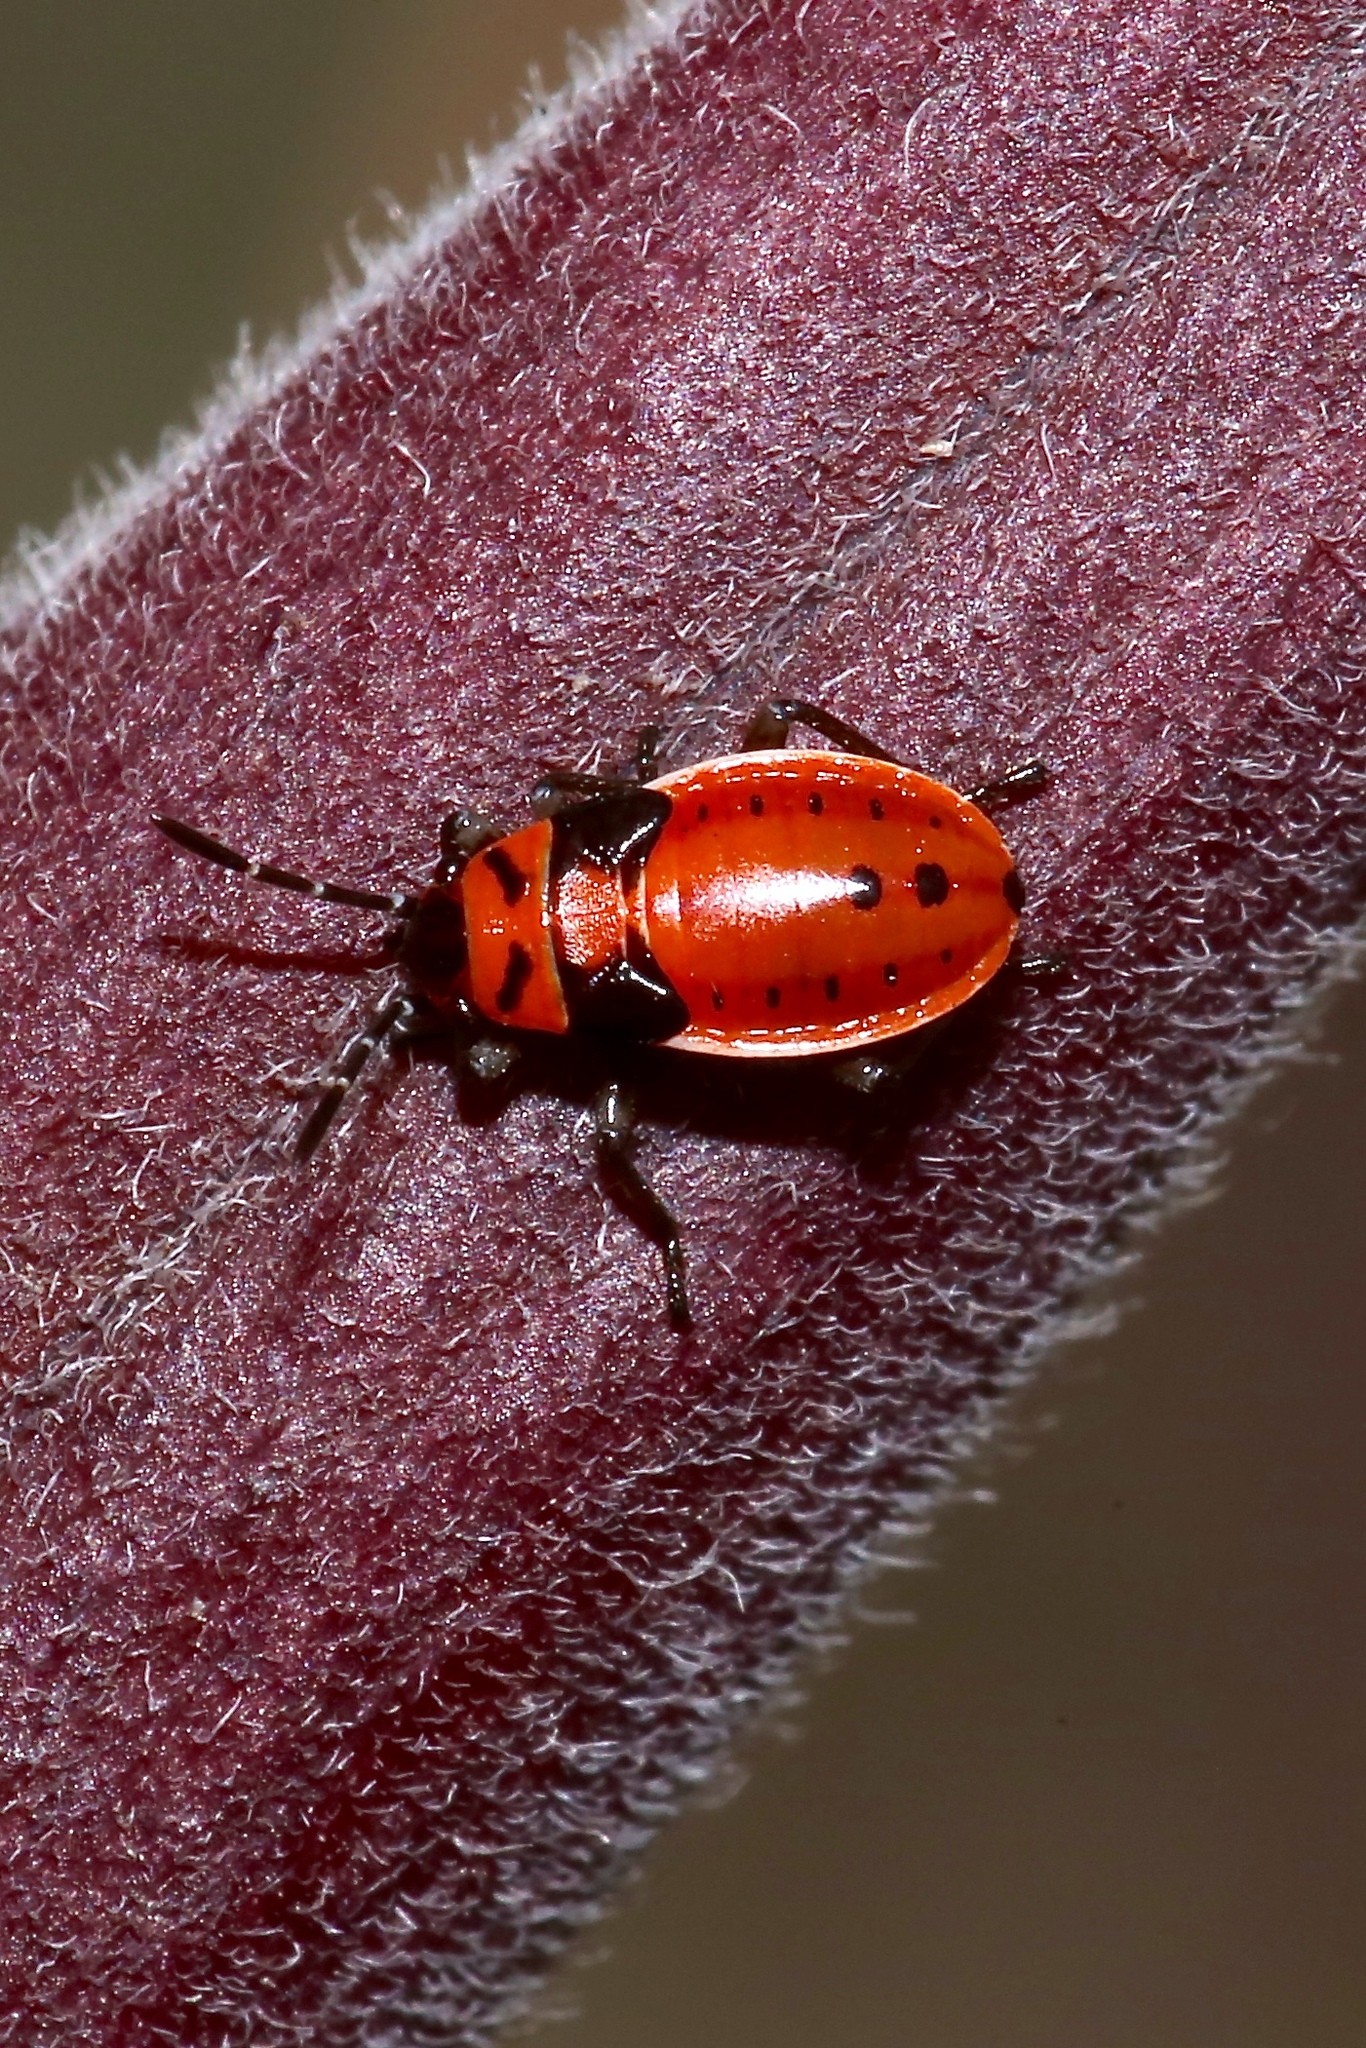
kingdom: Animalia
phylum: Arthropoda
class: Insecta
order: Hemiptera
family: Lygaeidae
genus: Lygaeus
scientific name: Lygaeus kalmii
